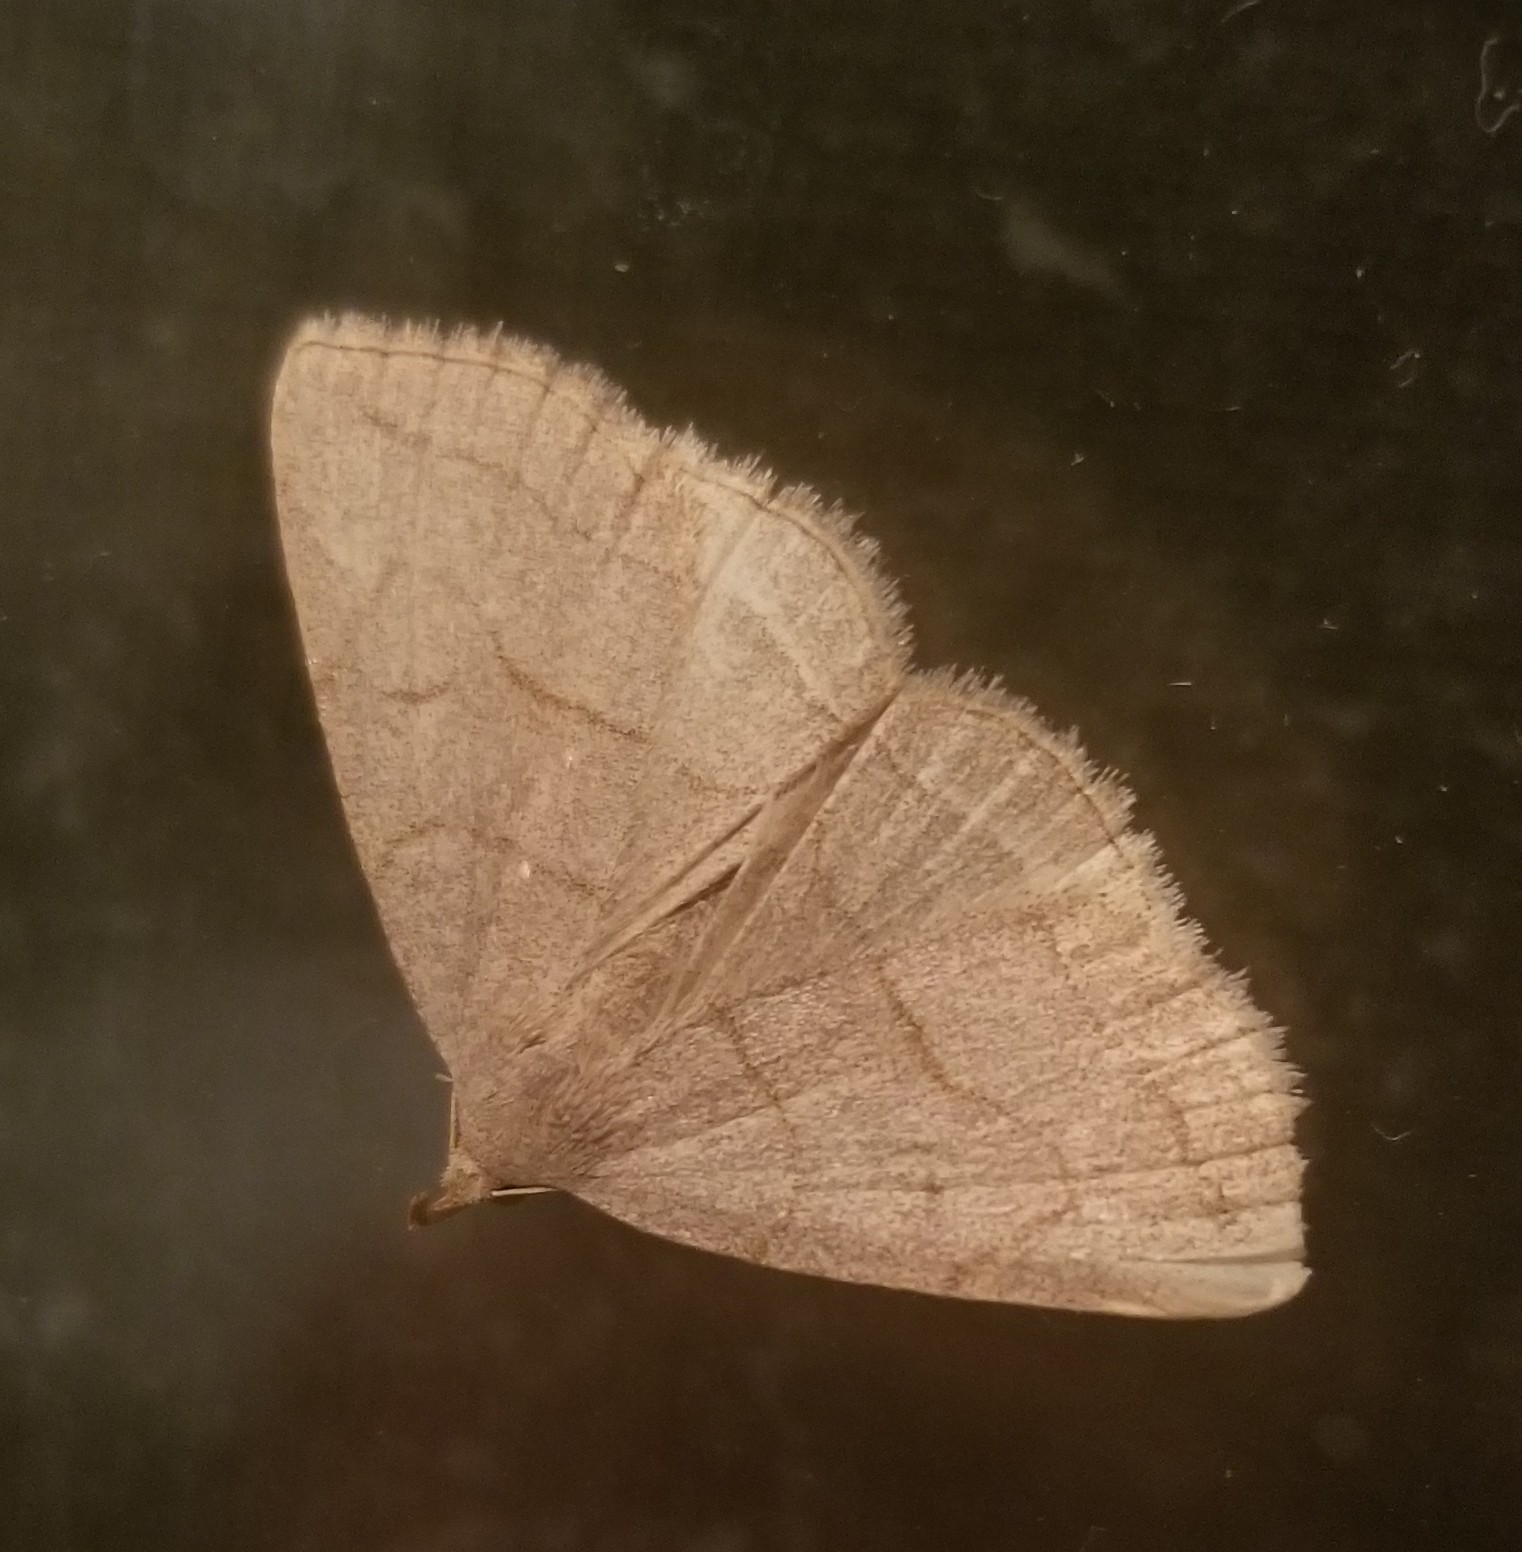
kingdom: Animalia
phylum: Arthropoda
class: Insecta
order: Lepidoptera
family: Erebidae
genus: Zanclognatha
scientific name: Zanclognatha pedipilalis
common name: Grayish fan-foot
